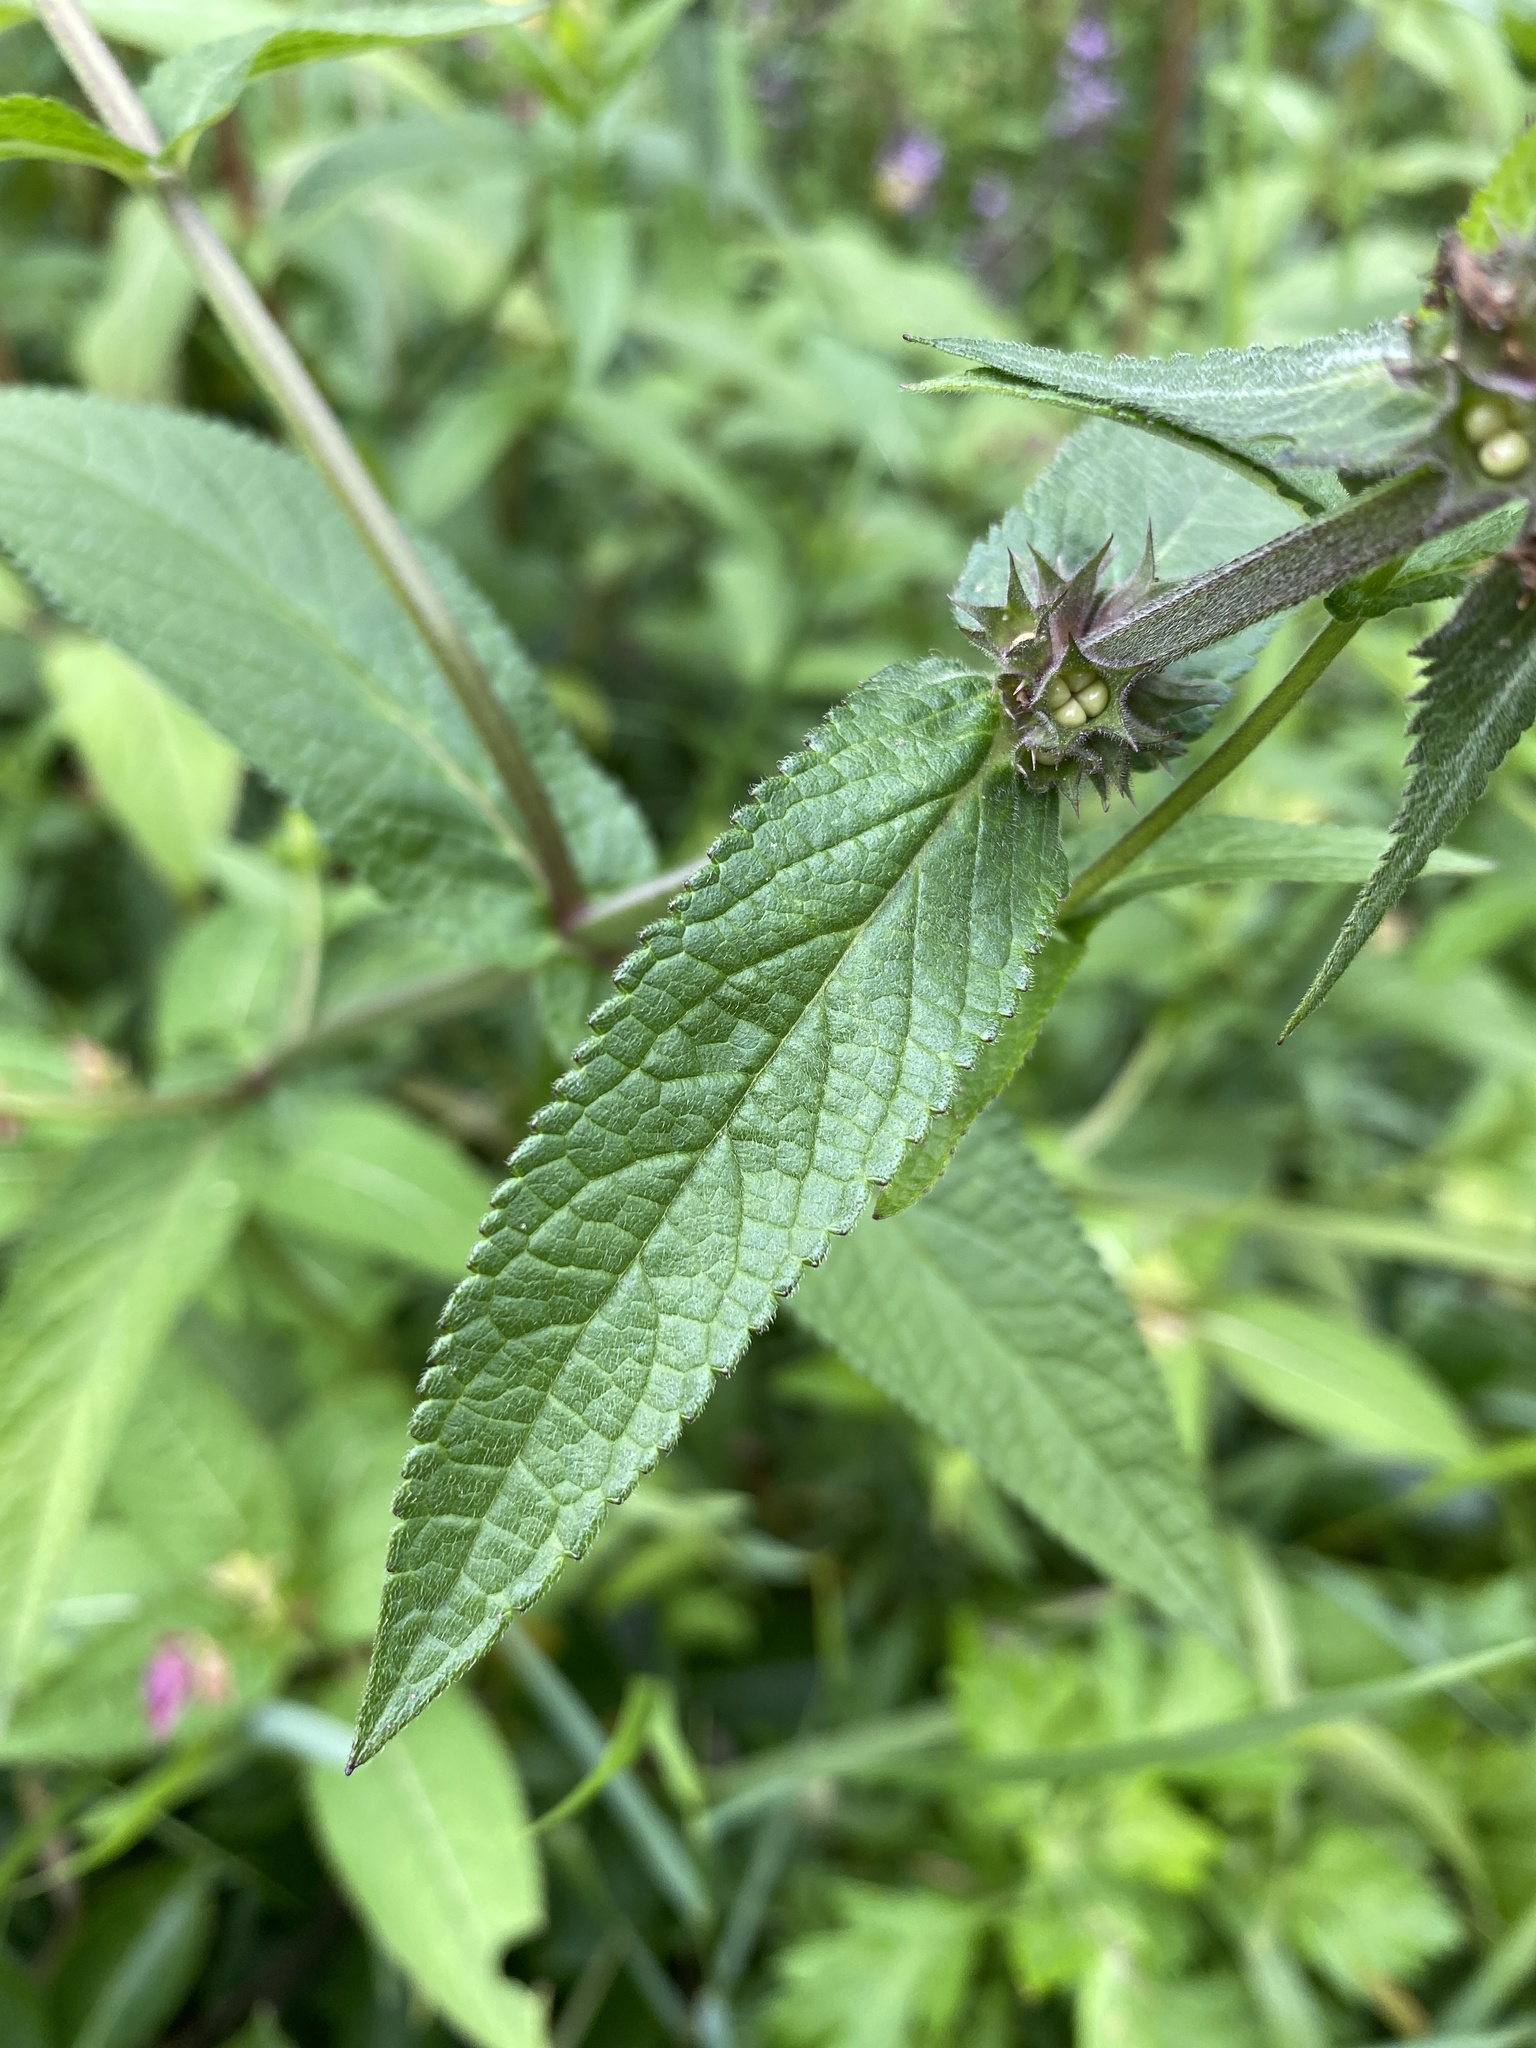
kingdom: Plantae
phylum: Tracheophyta
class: Magnoliopsida
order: Lamiales
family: Lamiaceae
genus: Stachys
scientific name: Stachys palustris
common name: Marsh woundwort
